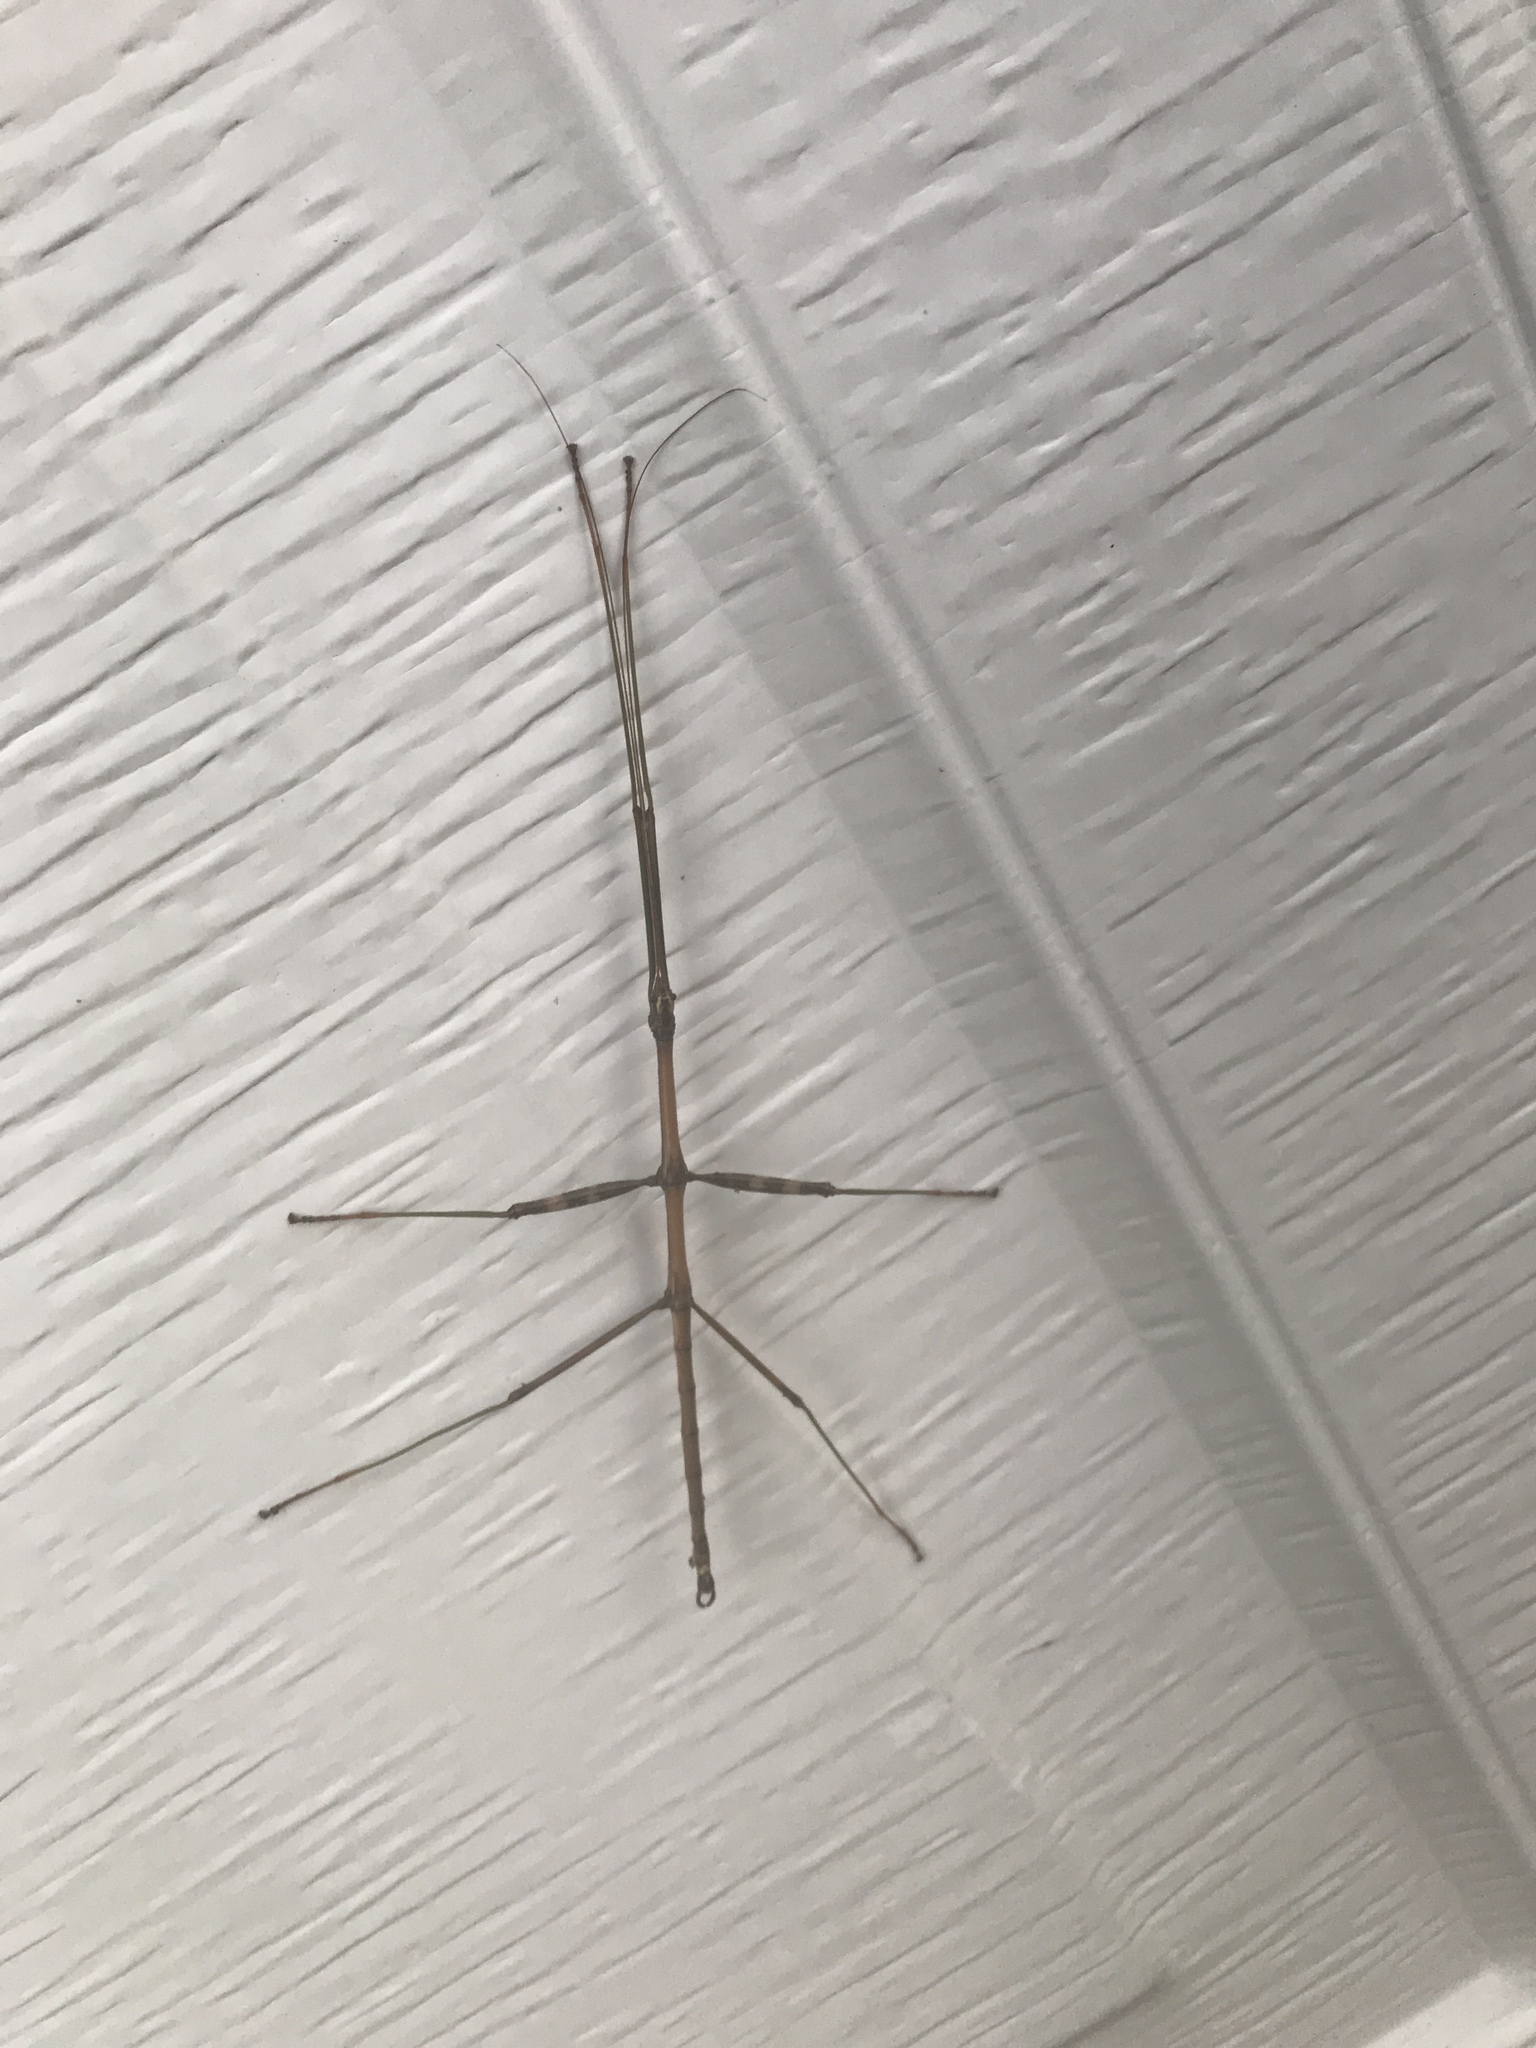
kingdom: Animalia
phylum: Arthropoda
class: Insecta
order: Phasmida
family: Diapheromeridae
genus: Diapheromera
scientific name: Diapheromera femorata
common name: Common american walkingstick
